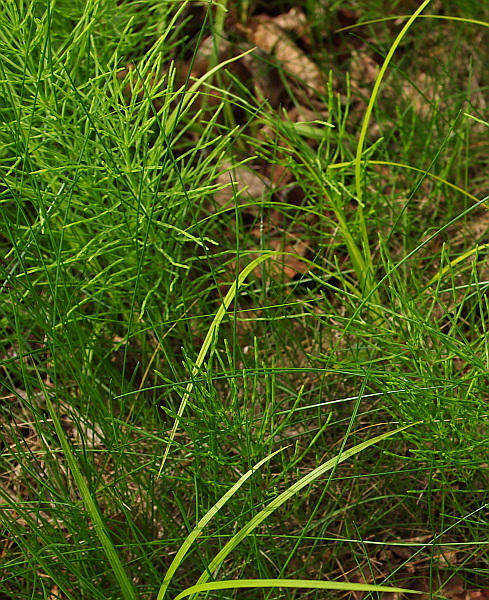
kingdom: Plantae
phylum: Tracheophyta
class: Polypodiopsida
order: Equisetales
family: Equisetaceae
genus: Equisetum
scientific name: Equisetum arvense
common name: Field horsetail
